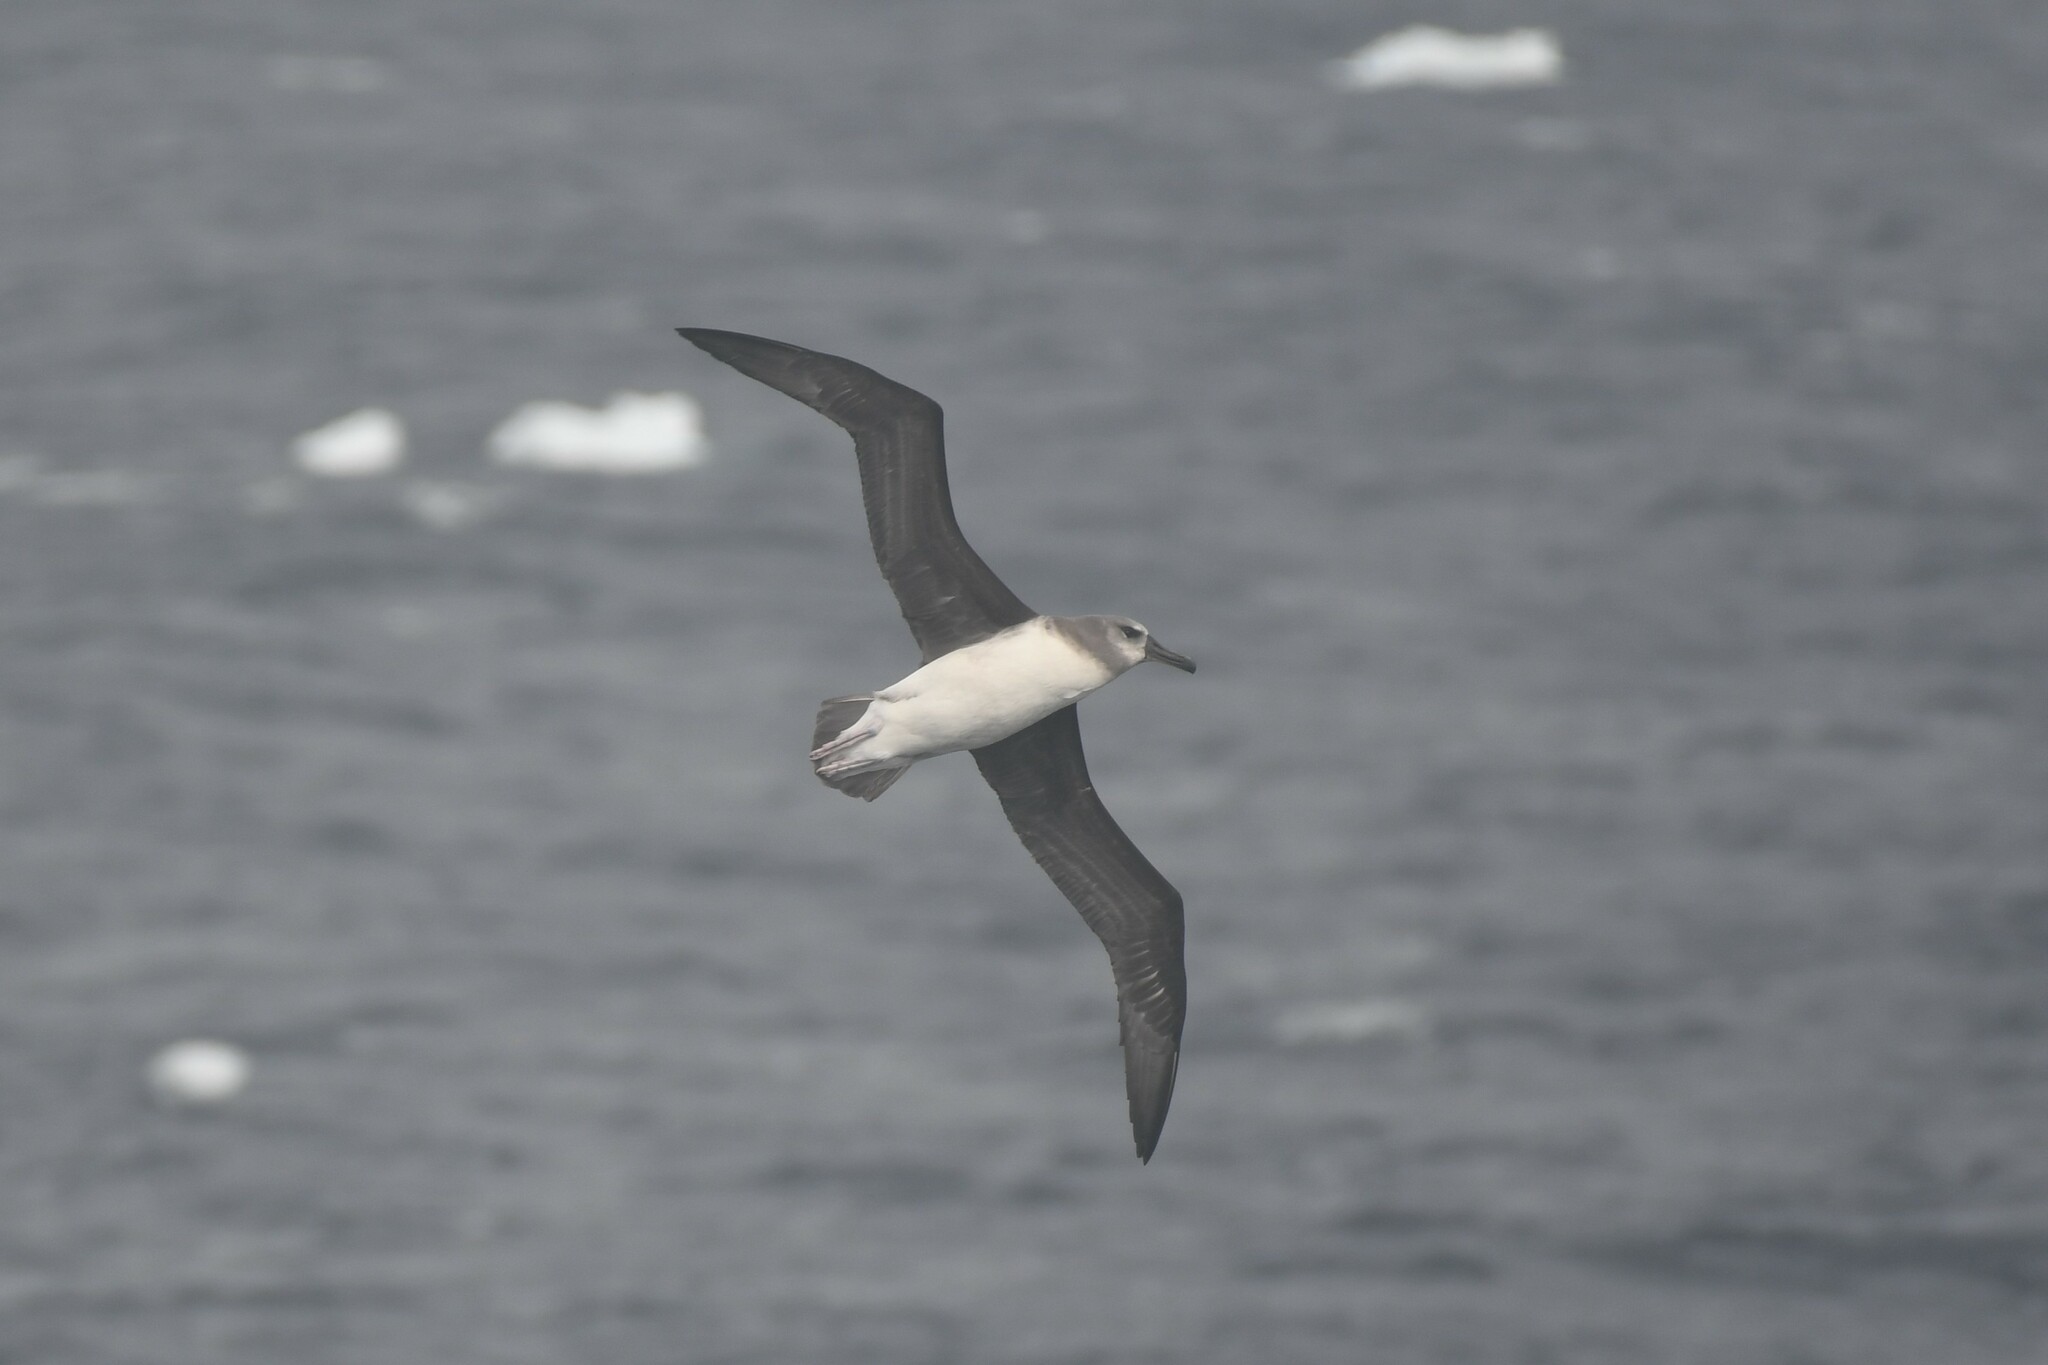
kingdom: Animalia
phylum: Chordata
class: Aves
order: Procellariiformes
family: Diomedeidae
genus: Thalassarche
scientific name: Thalassarche chrysostoma
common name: Grey-headed albatross
